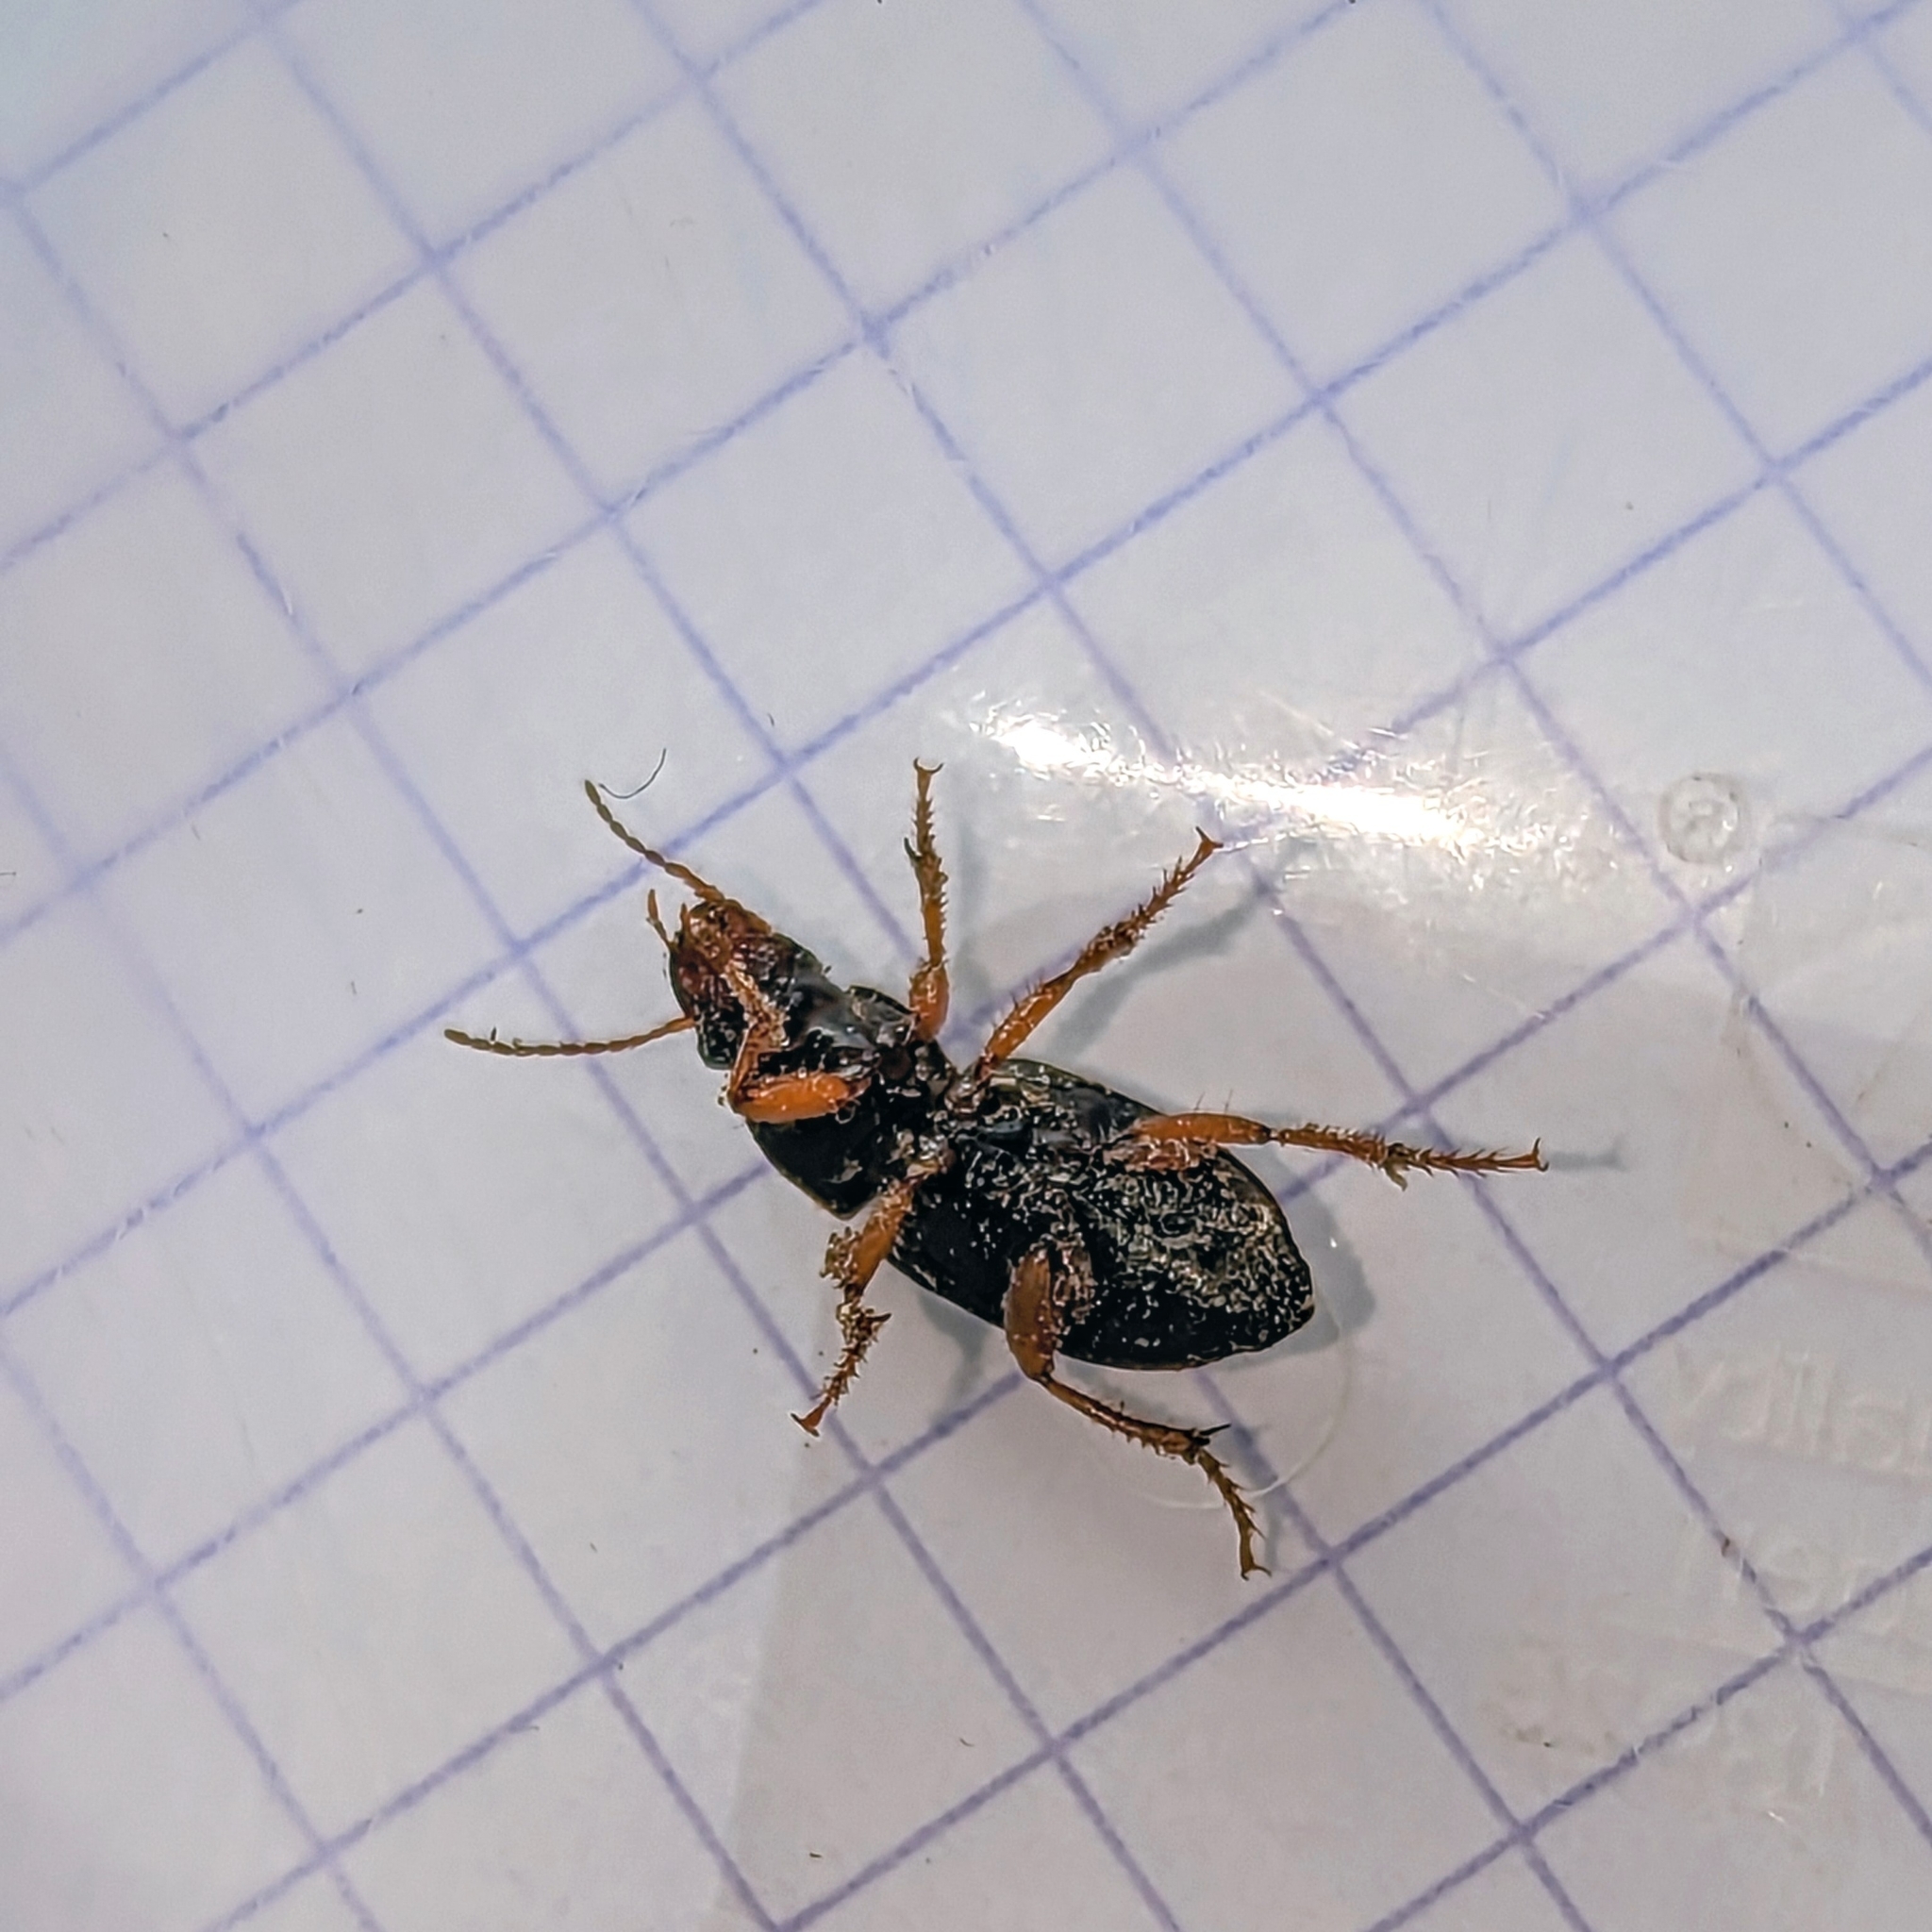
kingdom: Animalia
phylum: Arthropoda
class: Insecta
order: Coleoptera
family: Carabidae
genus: Harpalus
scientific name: Harpalus affinis
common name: Polychrome harp ground beetle
